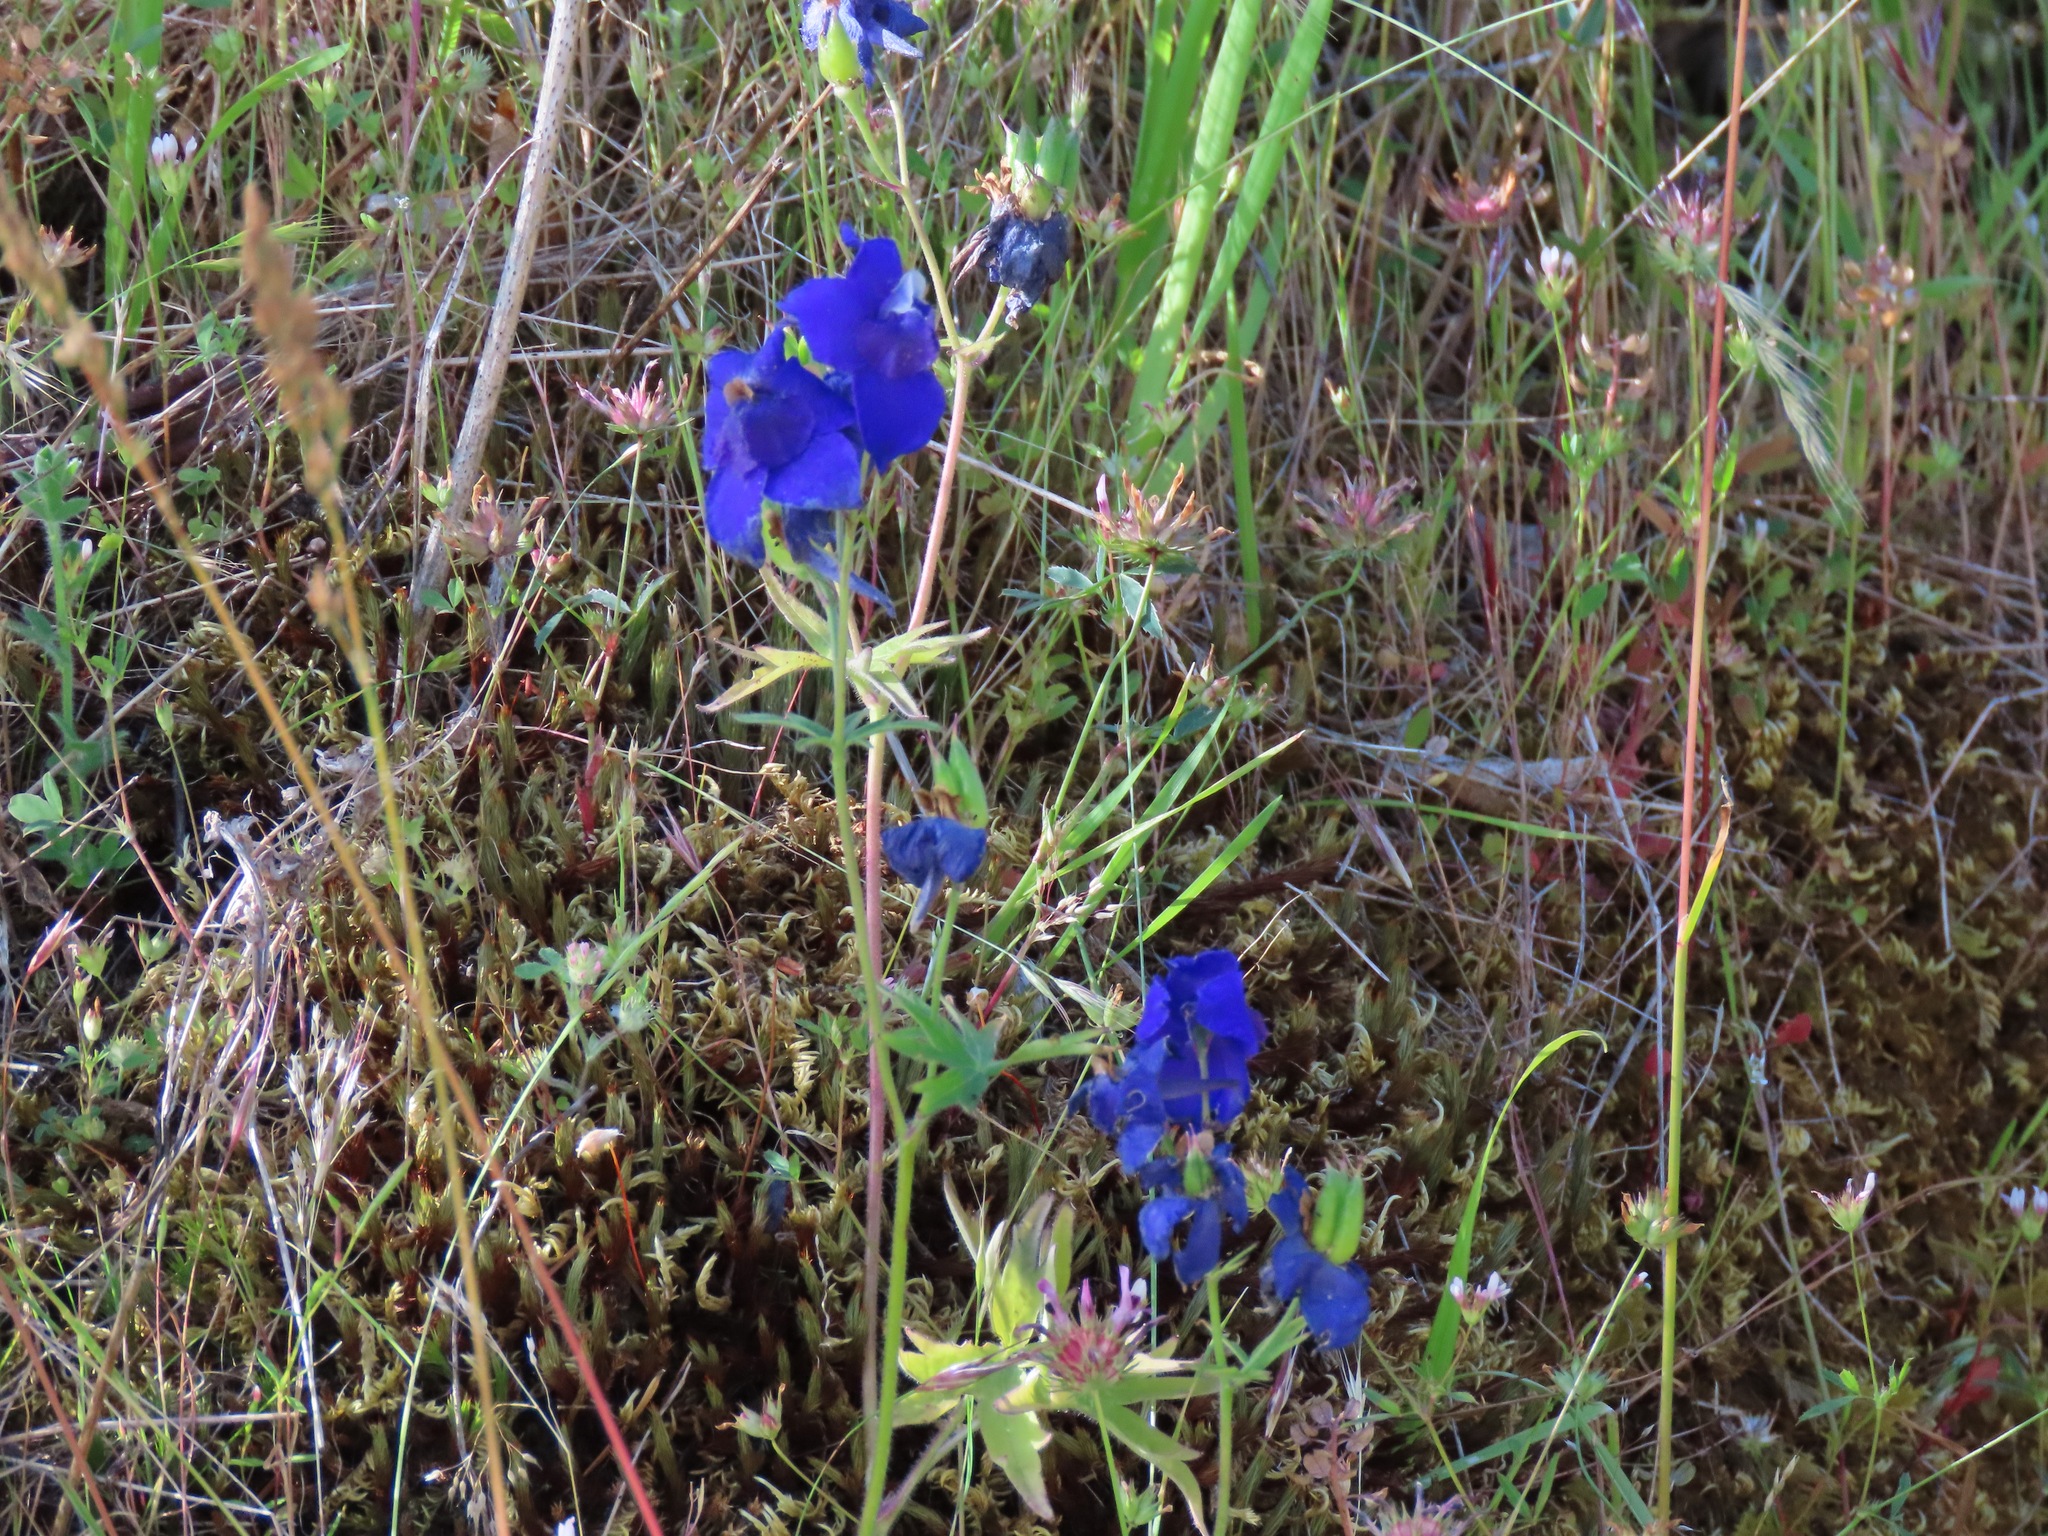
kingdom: Plantae
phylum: Tracheophyta
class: Magnoliopsida
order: Ranunculales
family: Ranunculaceae
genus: Delphinium
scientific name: Delphinium menziesii
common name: Menzies's larkspur
